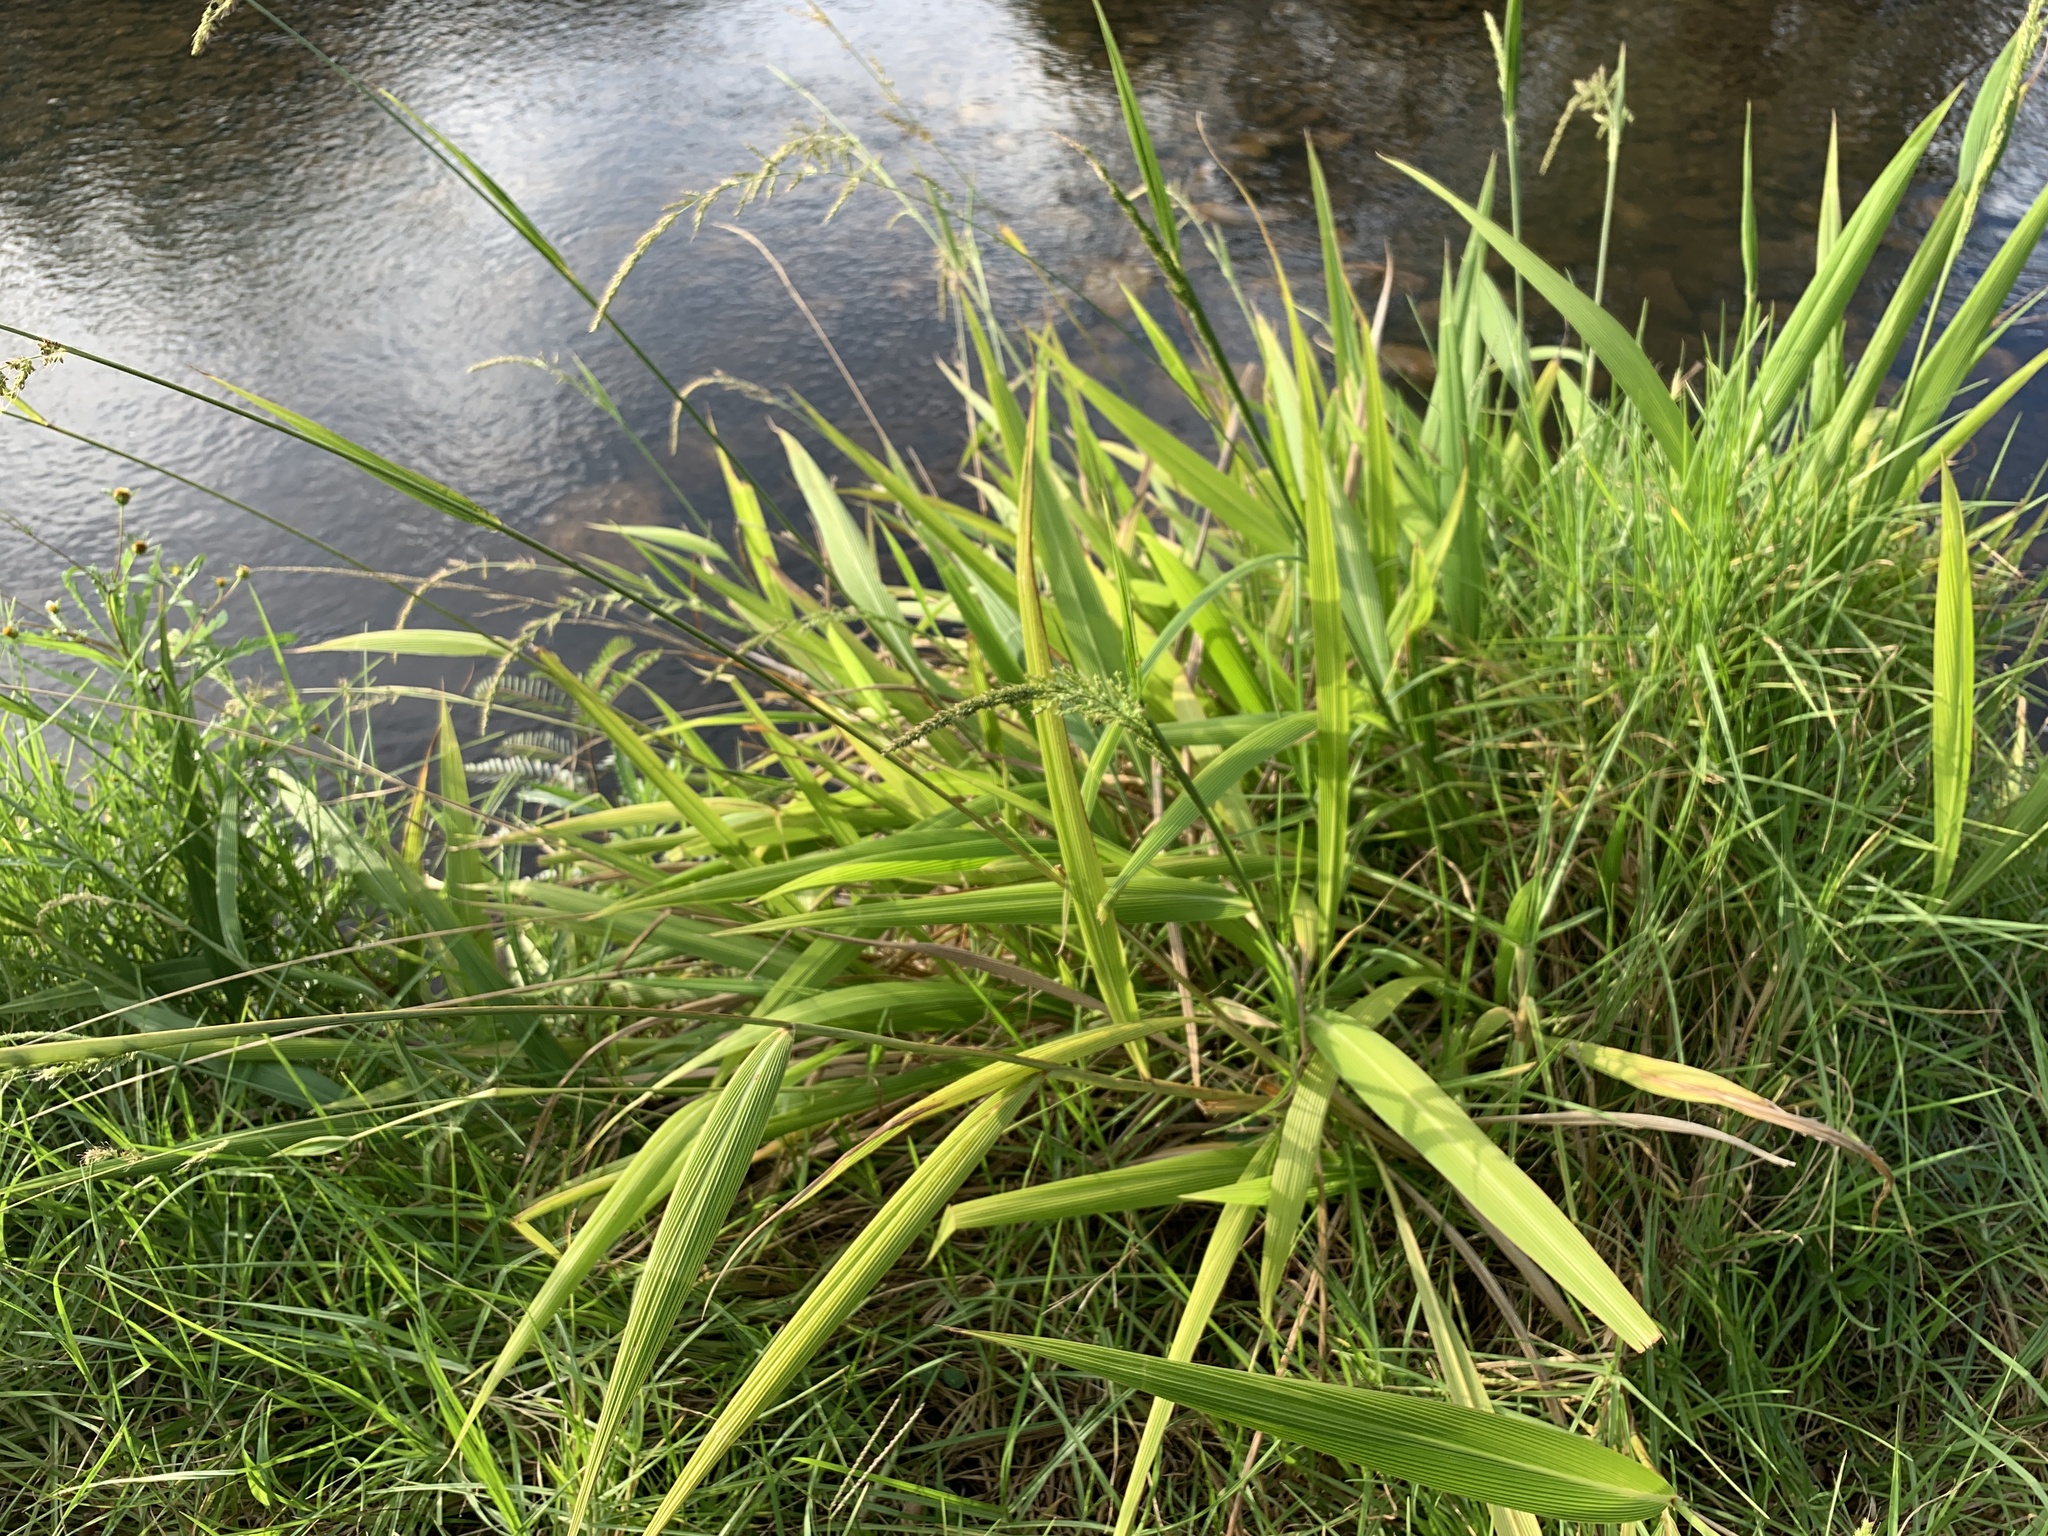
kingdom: Plantae
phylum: Tracheophyta
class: Liliopsida
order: Poales
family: Poaceae
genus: Setaria
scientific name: Setaria megaphylla
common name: Bigleaf bristlegrass
